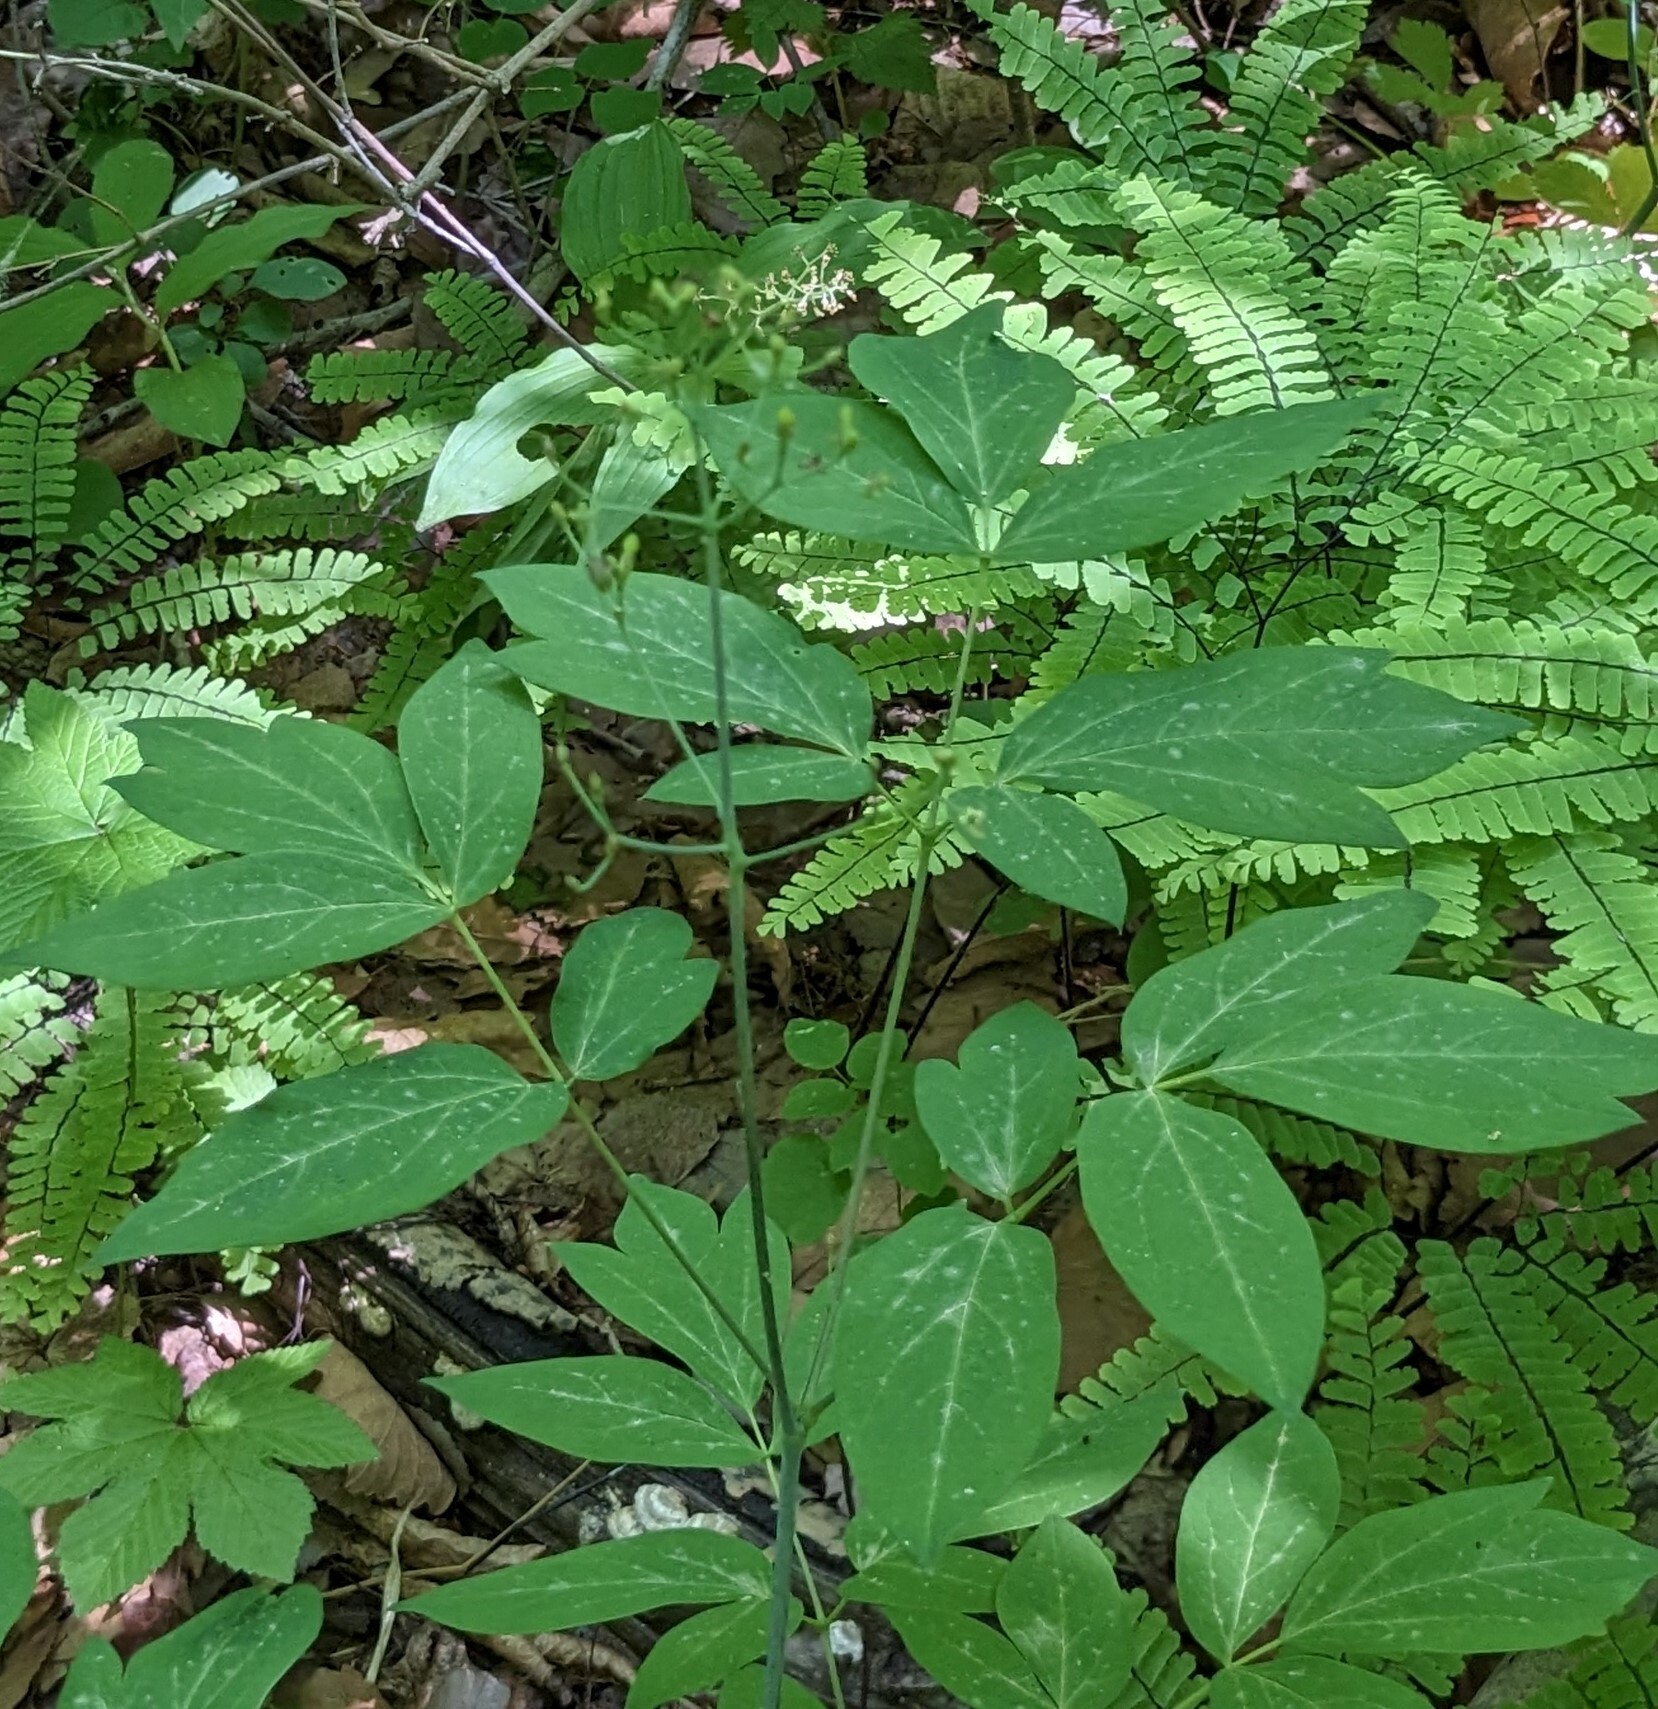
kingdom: Plantae
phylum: Tracheophyta
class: Magnoliopsida
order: Ranunculales
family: Berberidaceae
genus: Caulophyllum
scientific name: Caulophyllum robustum
